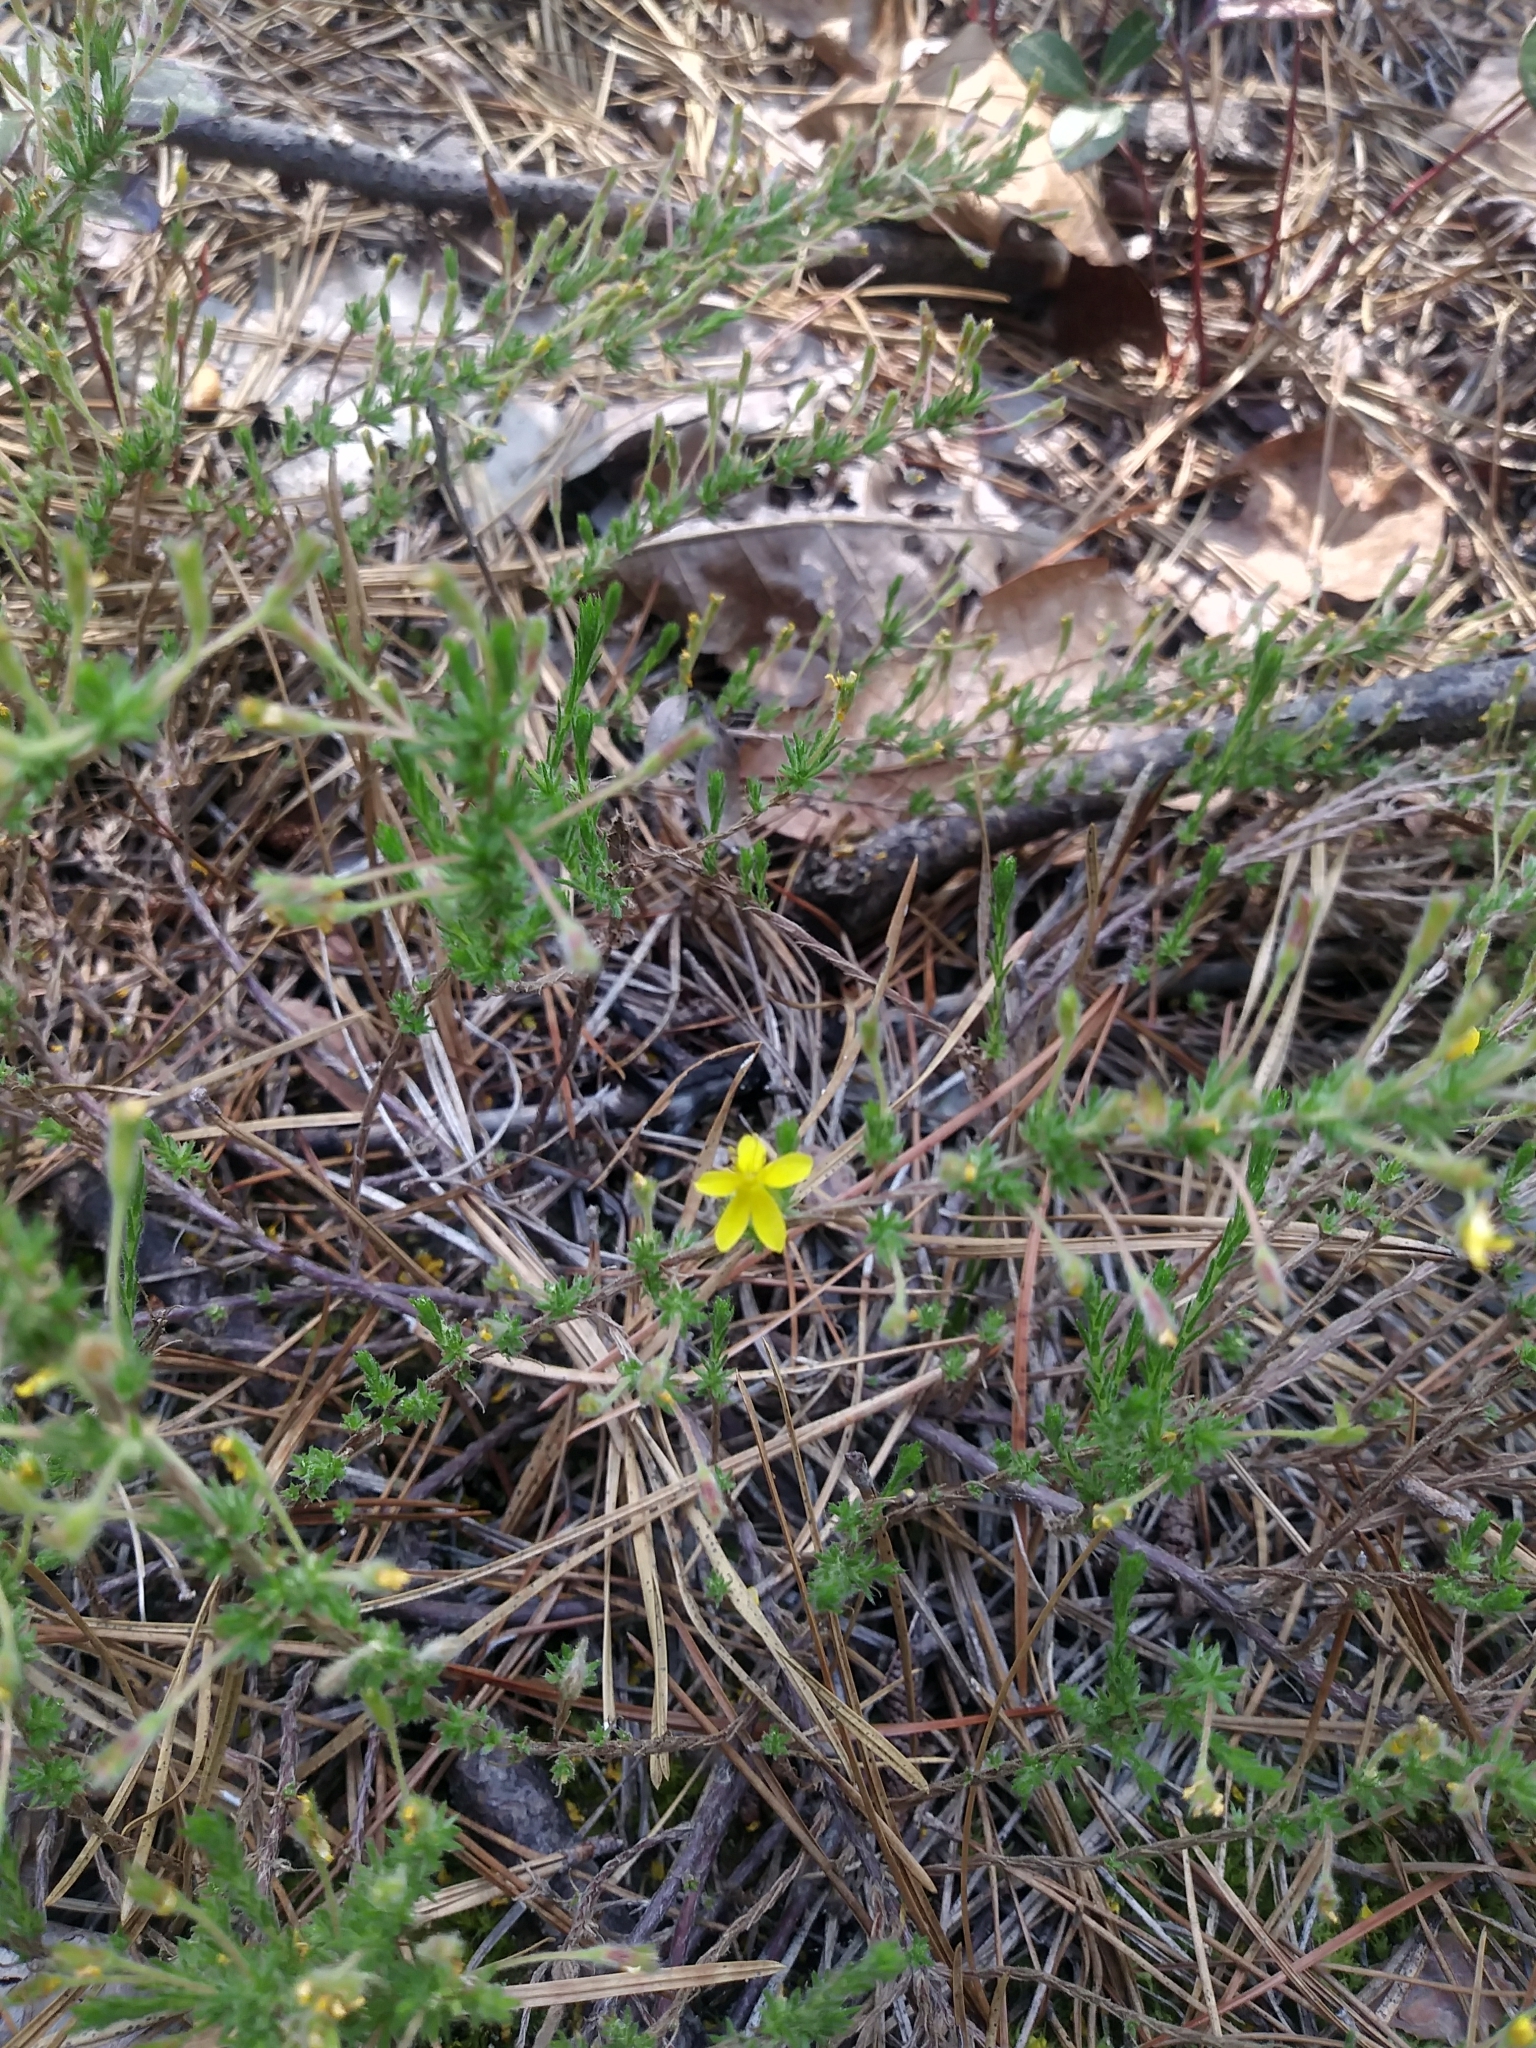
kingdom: Plantae
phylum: Tracheophyta
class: Magnoliopsida
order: Malvales
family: Cistaceae
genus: Hudsonia
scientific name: Hudsonia ericoides
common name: Golden-heather
